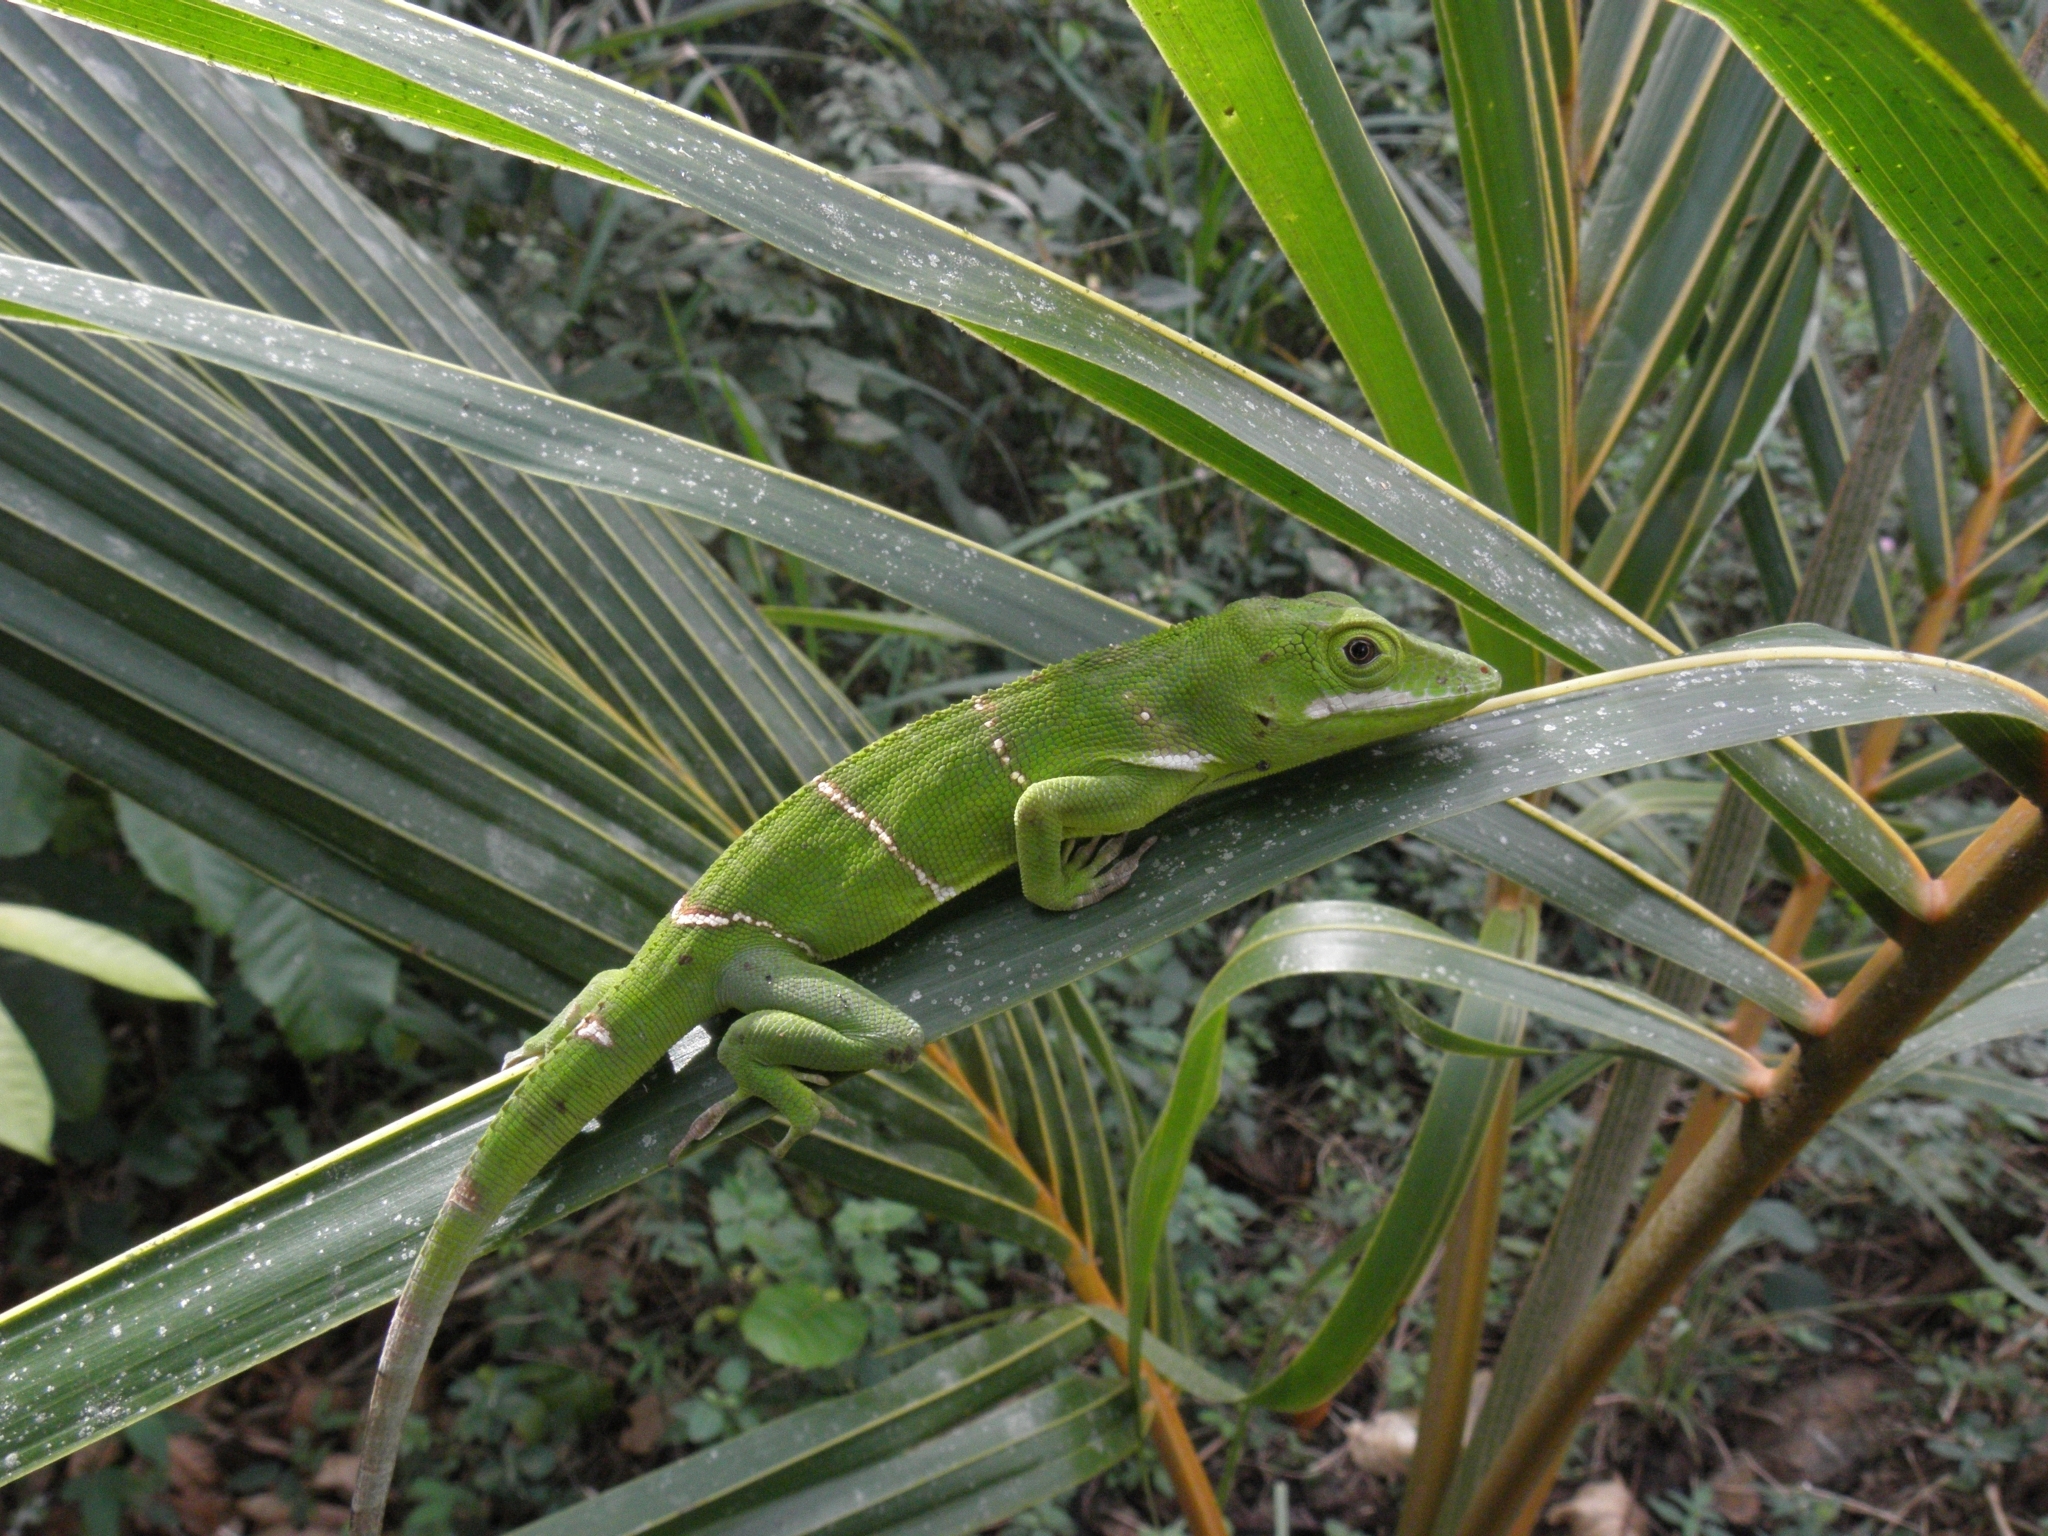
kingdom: Animalia
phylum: Chordata
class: Squamata
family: Dactyloidae
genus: Anolis
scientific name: Anolis luteogularis
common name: Western giant anole
